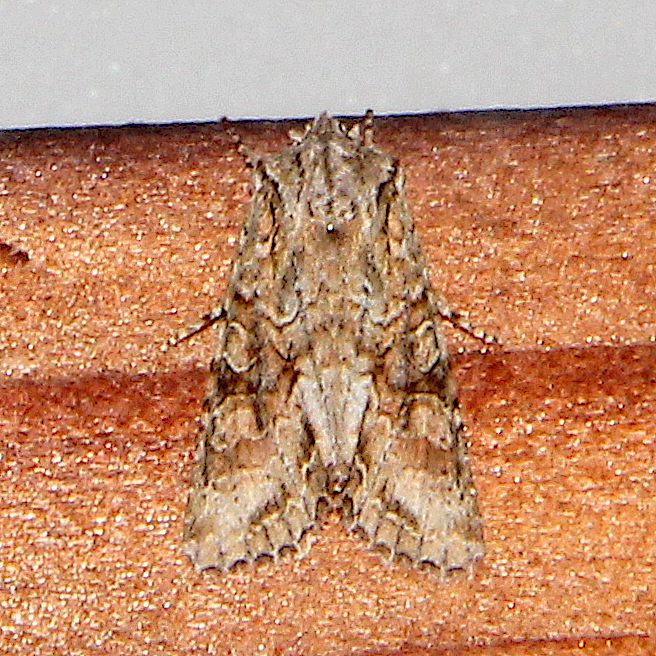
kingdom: Animalia
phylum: Arthropoda
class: Insecta
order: Lepidoptera
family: Noctuidae
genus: Ichneutica
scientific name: Ichneutica mutans
